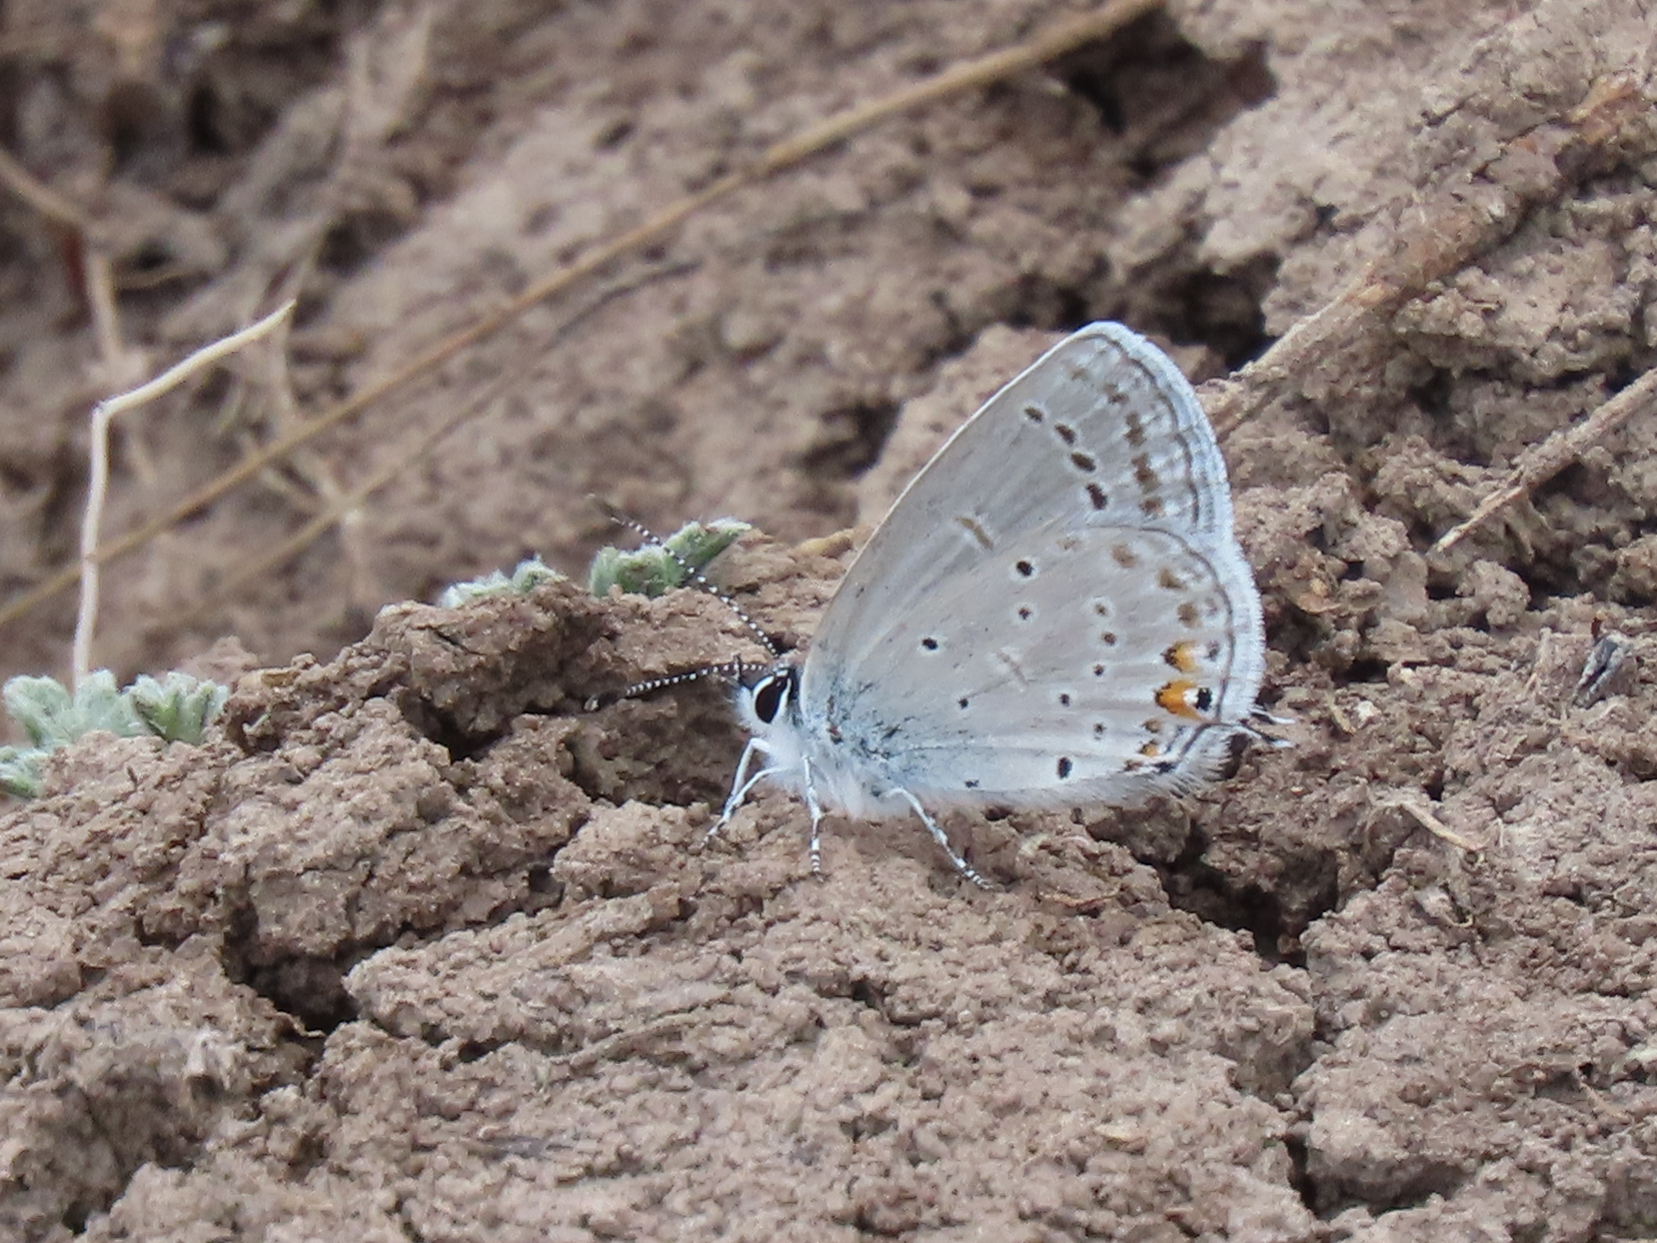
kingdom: Animalia
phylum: Arthropoda
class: Insecta
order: Lepidoptera
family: Lycaenidae
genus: Elkalyce
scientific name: Elkalyce amyntula
